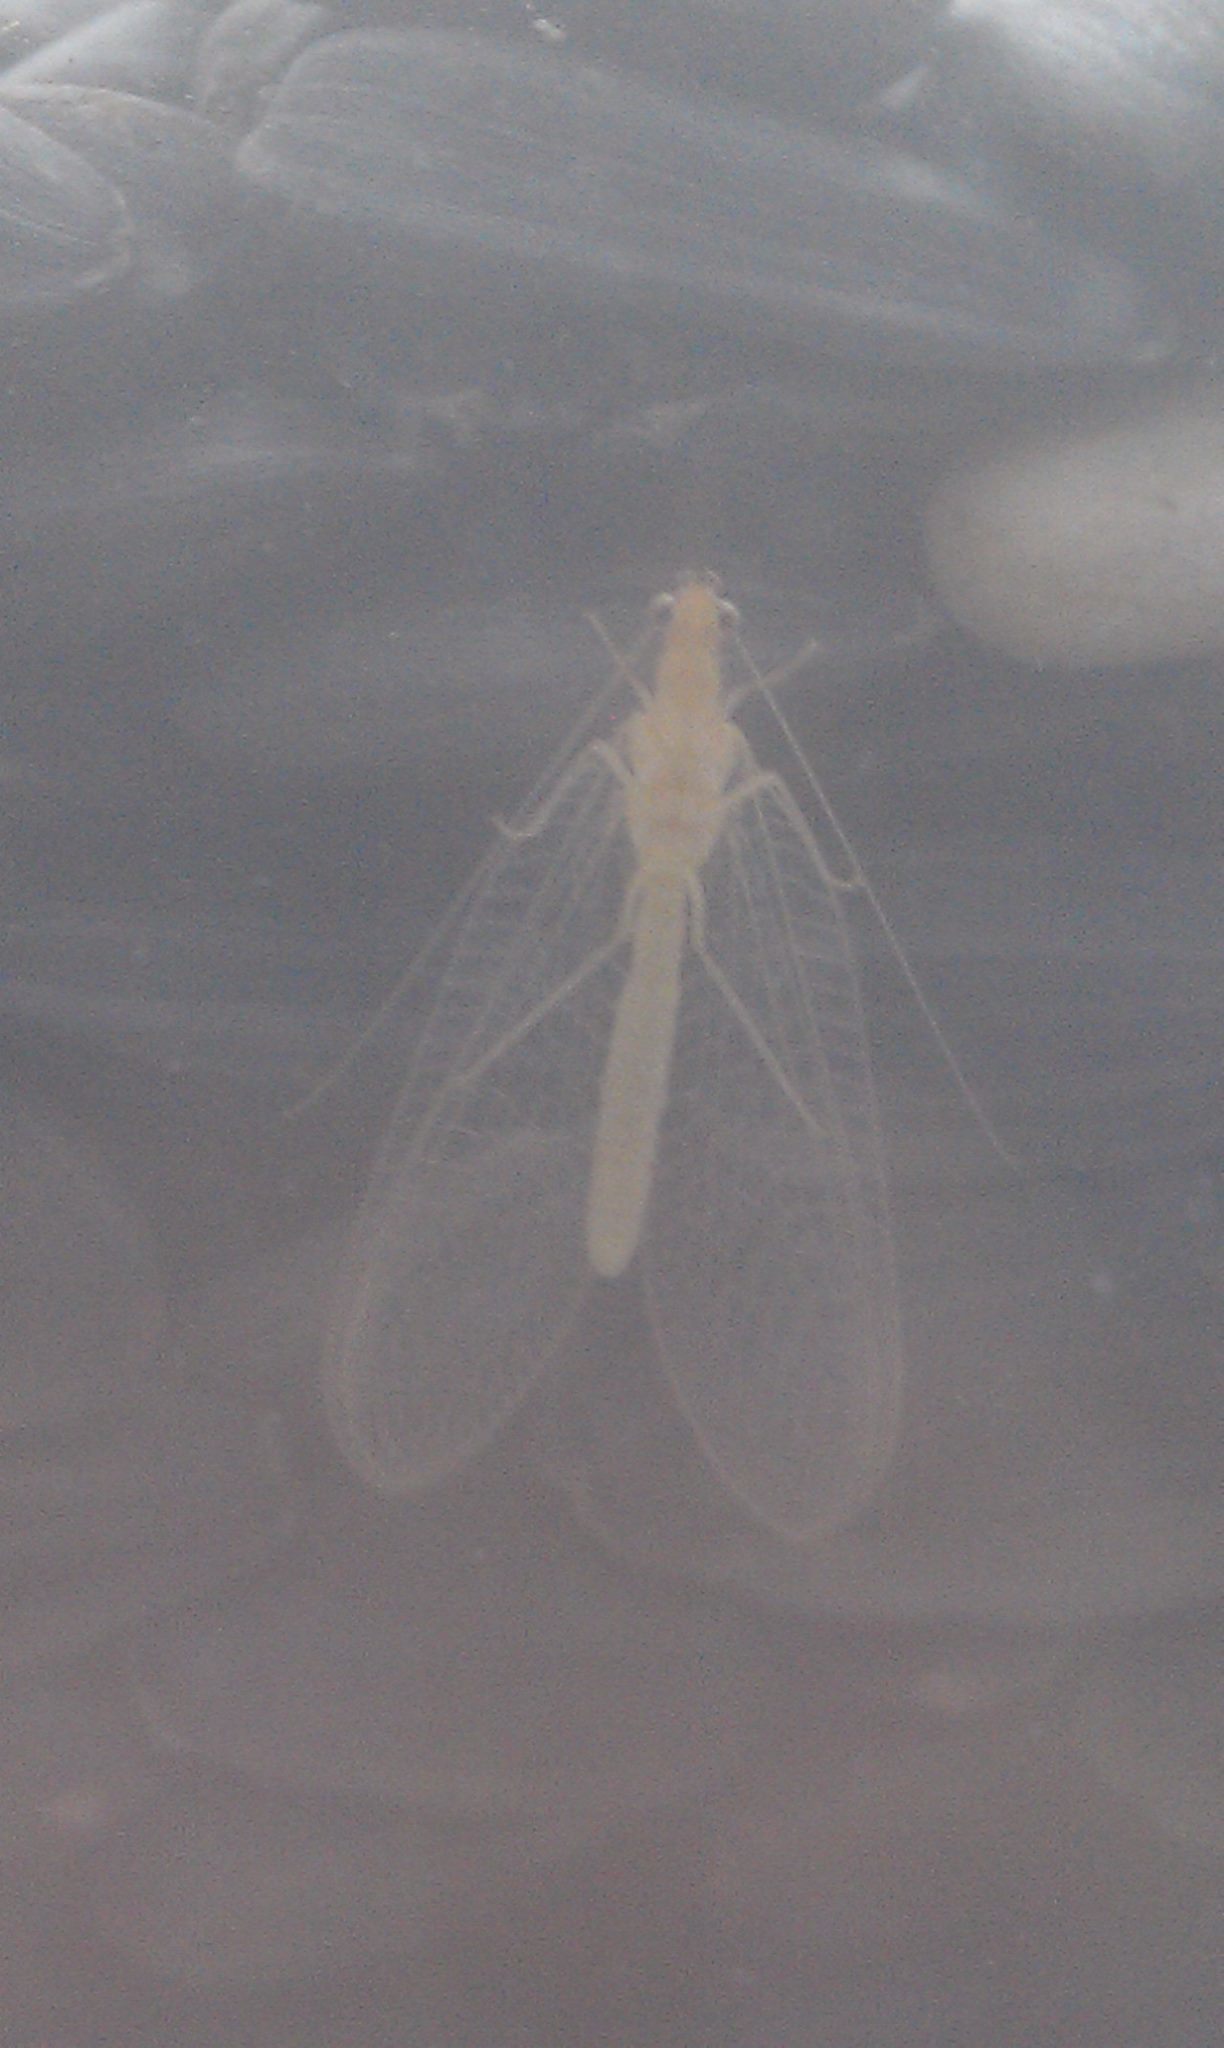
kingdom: Animalia
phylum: Arthropoda
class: Insecta
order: Neuroptera
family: Chrysopidae
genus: Chrysoperla
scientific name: Chrysoperla
